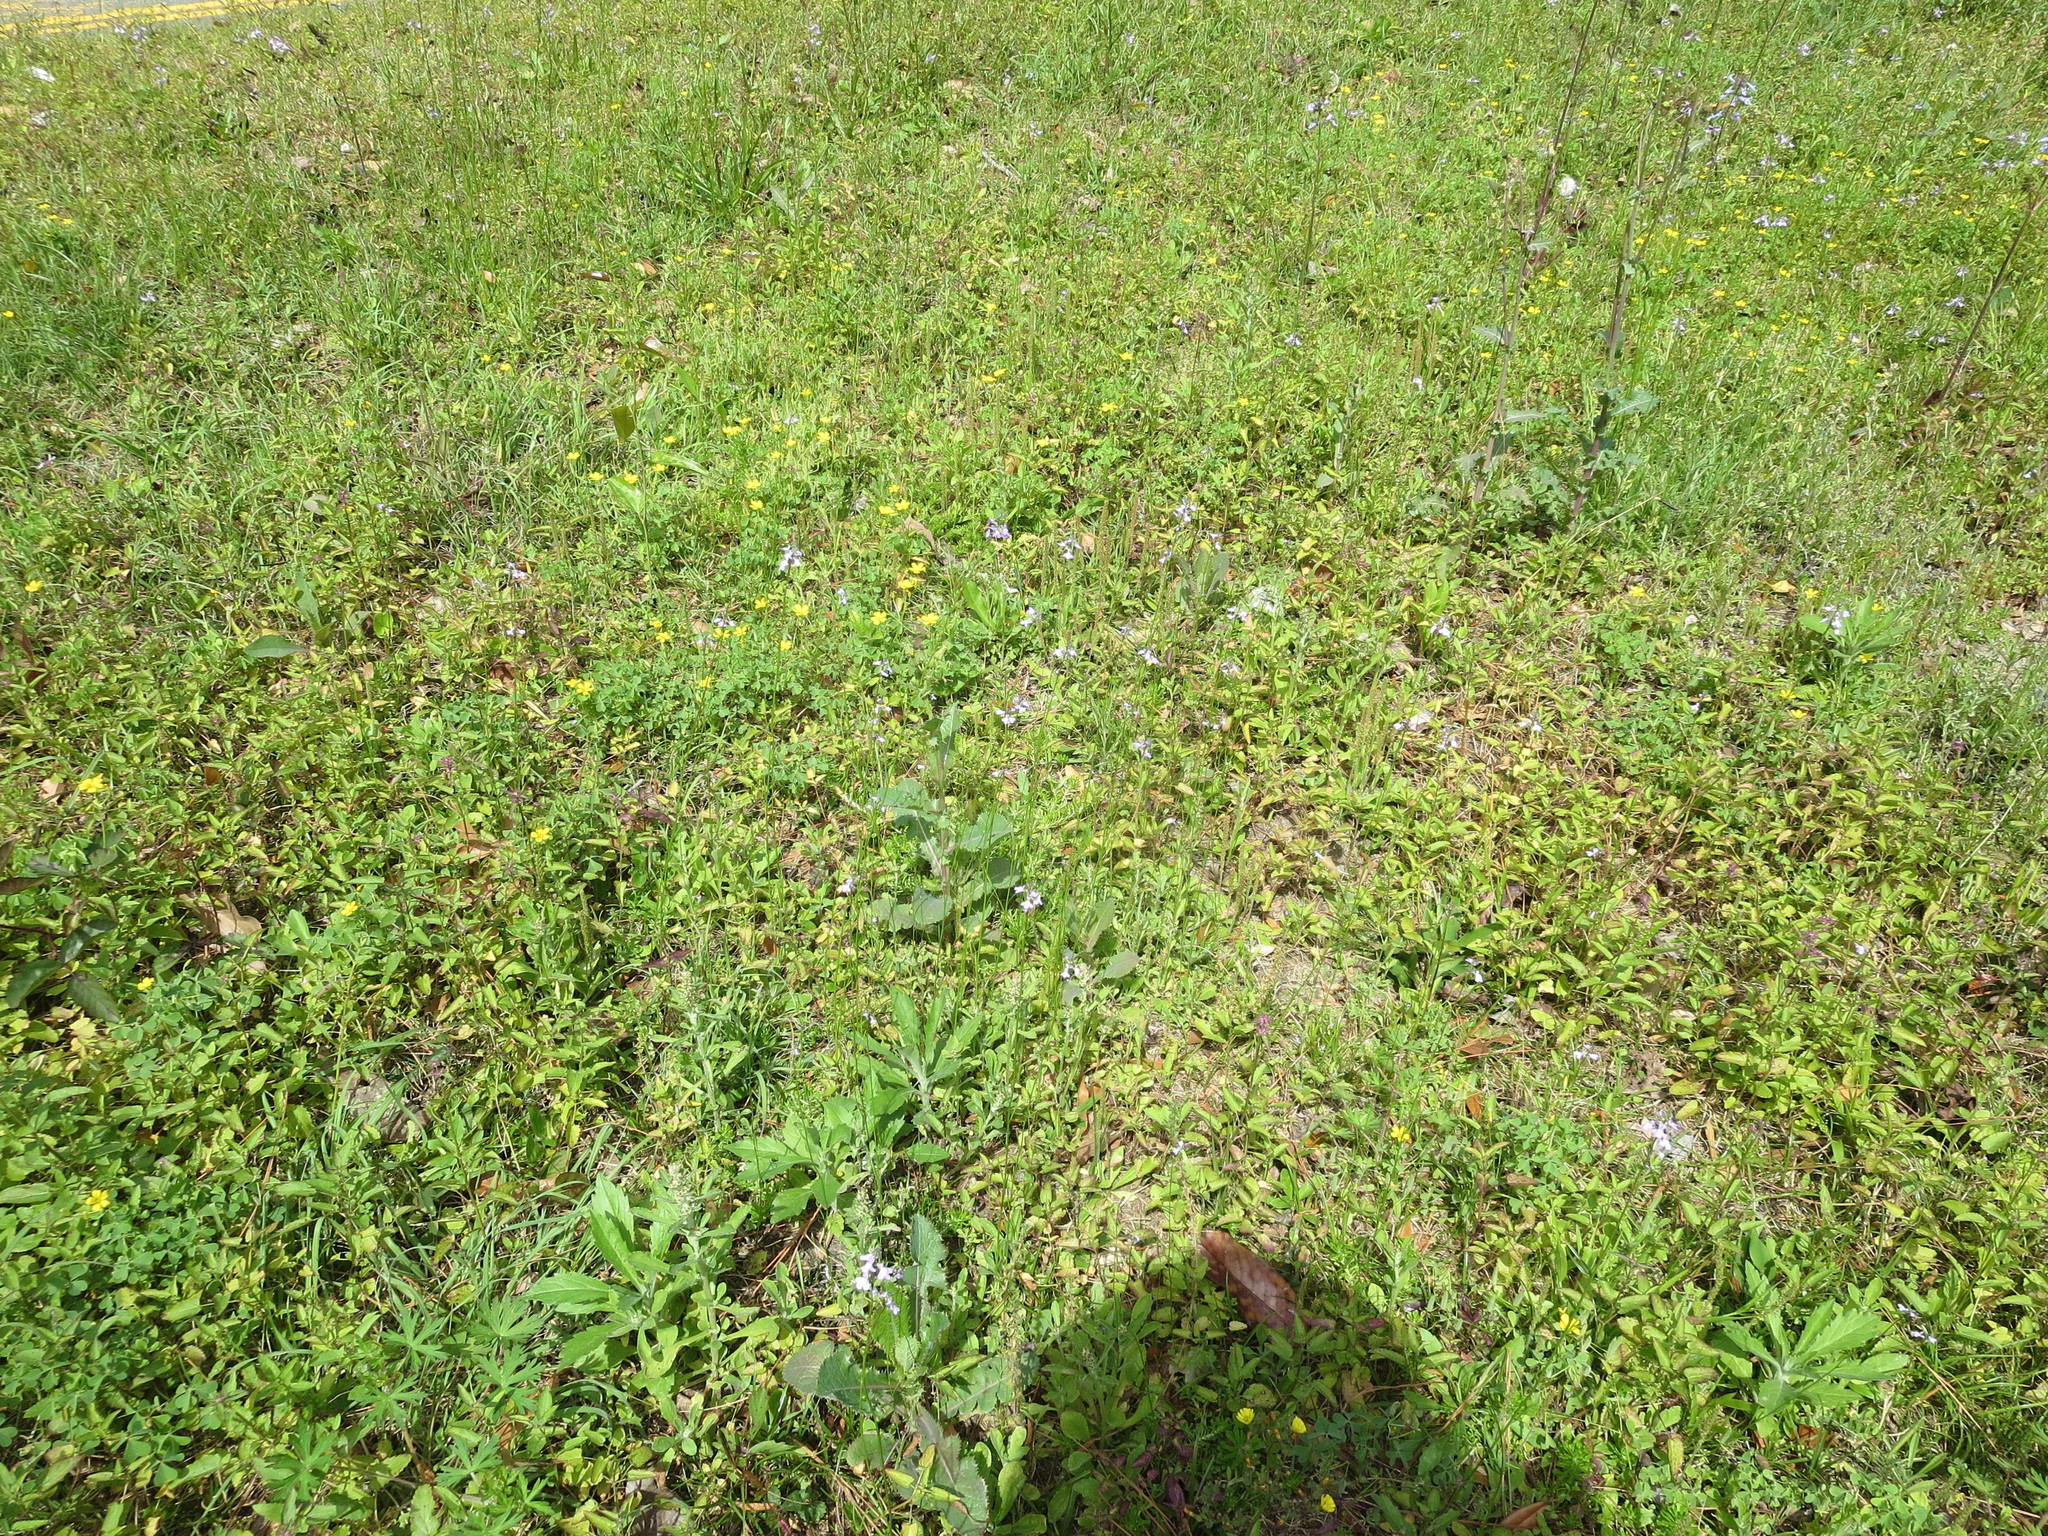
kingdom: Plantae
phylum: Tracheophyta
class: Magnoliopsida
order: Lamiales
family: Plantaginaceae
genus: Nuttallanthus
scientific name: Nuttallanthus canadensis
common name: Blue toadflax
